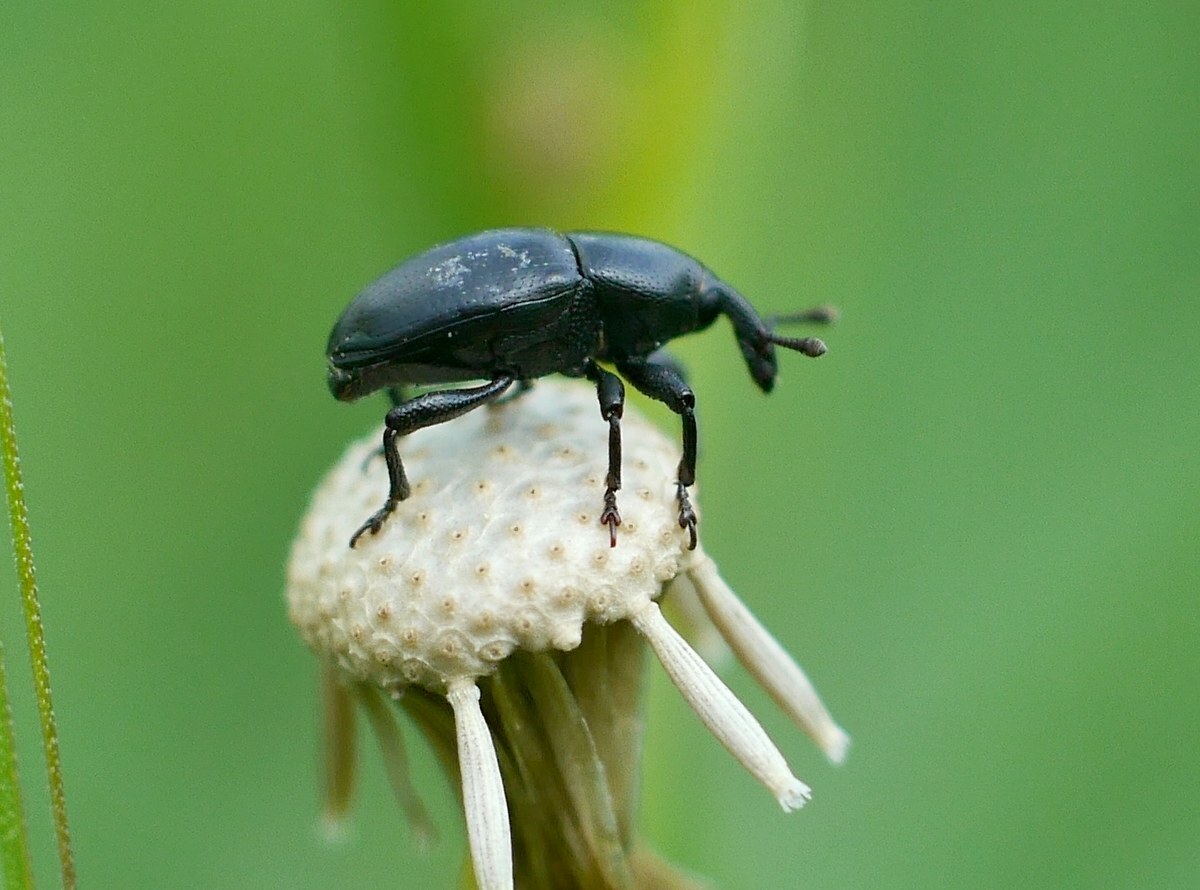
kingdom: Animalia
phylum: Arthropoda
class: Insecta
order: Coleoptera
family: Curculionidae
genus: Malvaevora
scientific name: Malvaevora timida
